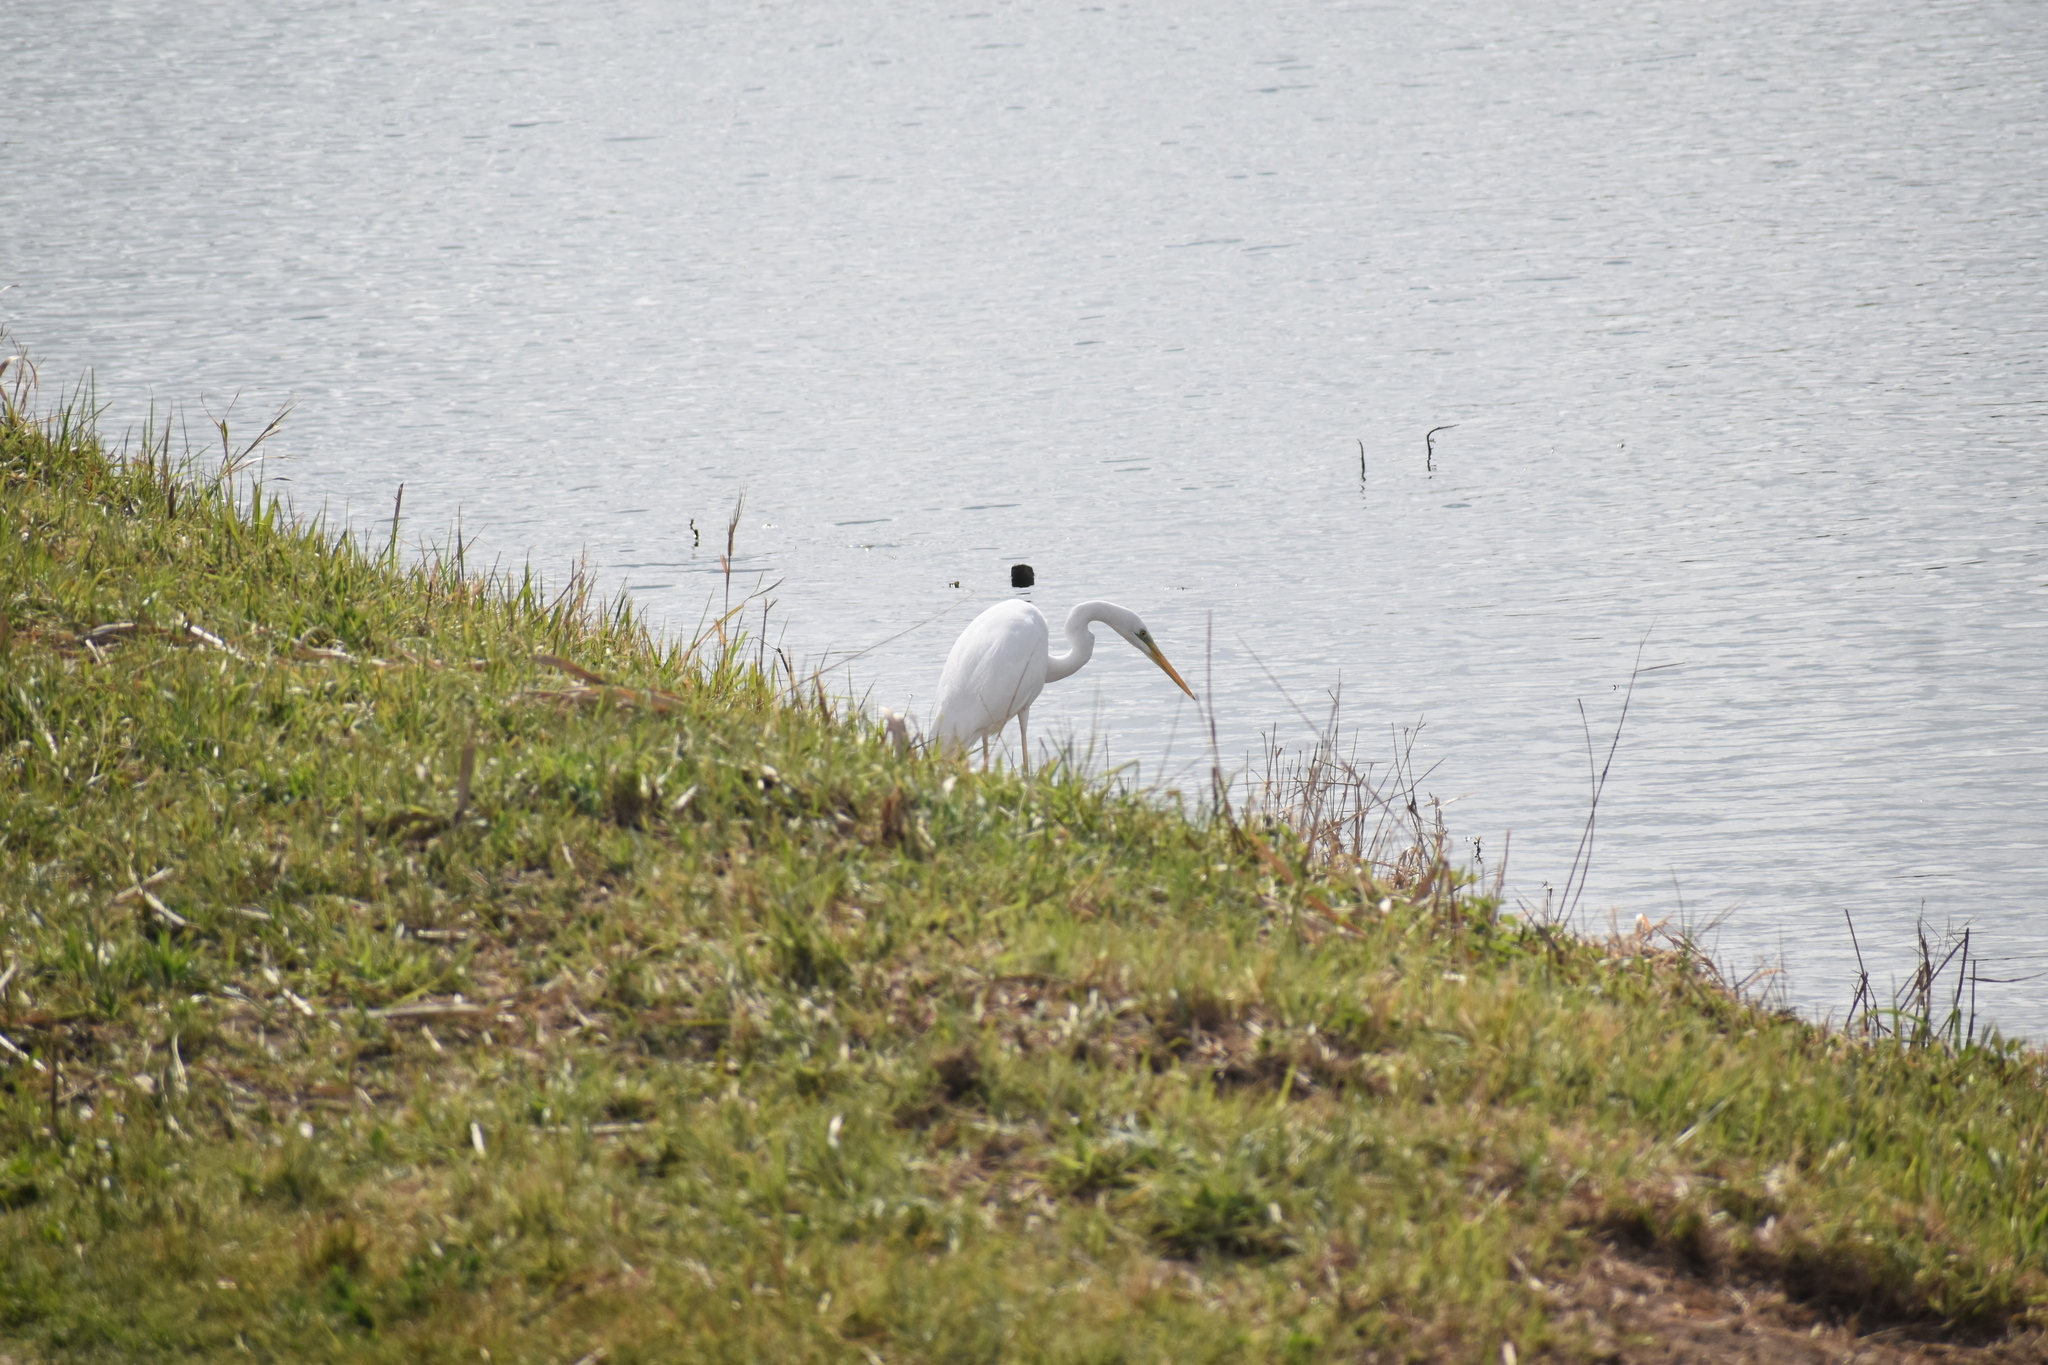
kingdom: Animalia
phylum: Chordata
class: Aves
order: Pelecaniformes
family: Ardeidae
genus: Ardea
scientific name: Ardea alba
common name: Great egret
